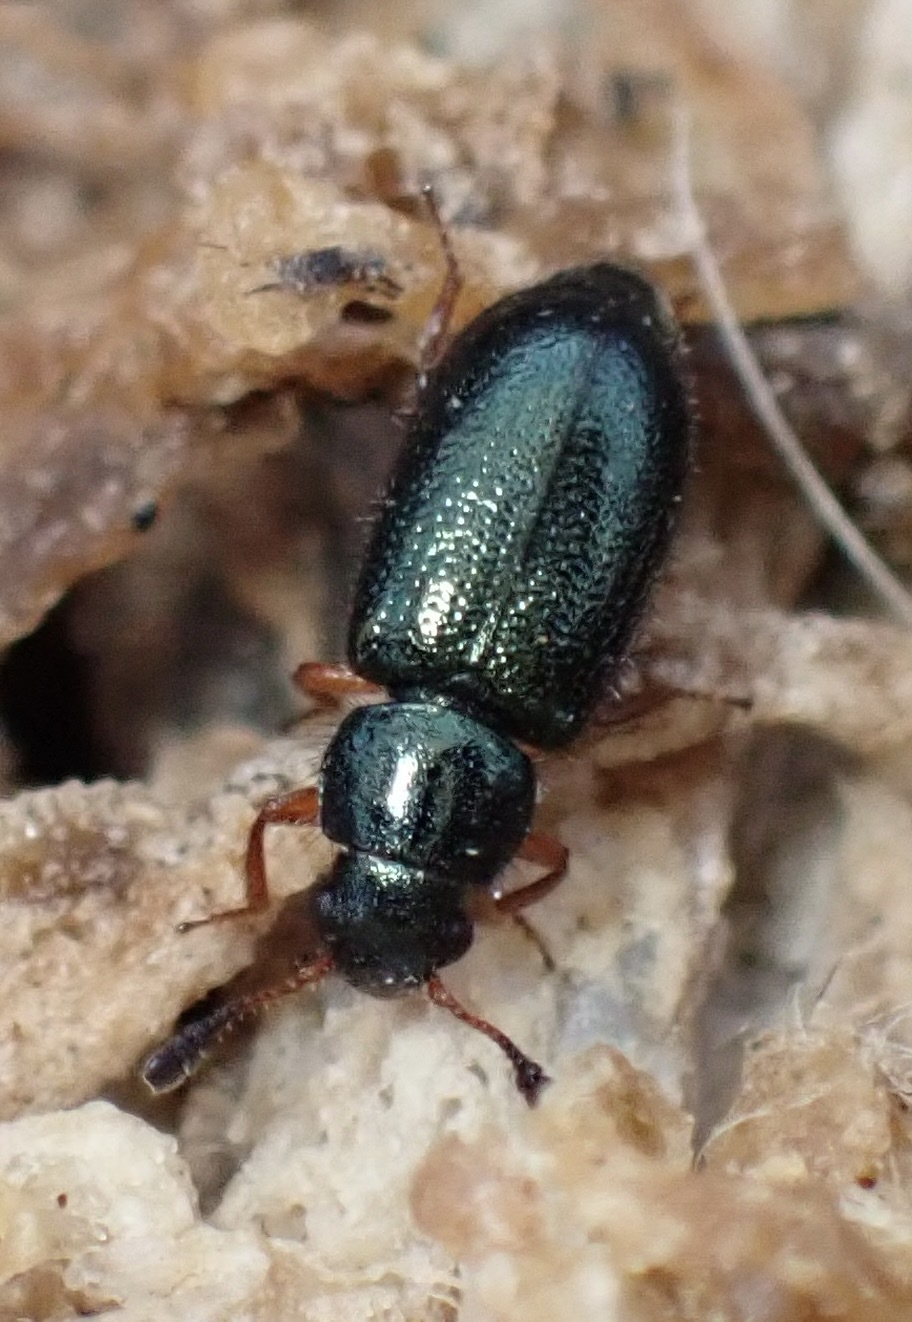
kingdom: Animalia
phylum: Arthropoda
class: Insecta
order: Coleoptera
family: Cleridae
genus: Necrobia
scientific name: Necrobia rufipes
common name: Red-legged ham beetle
